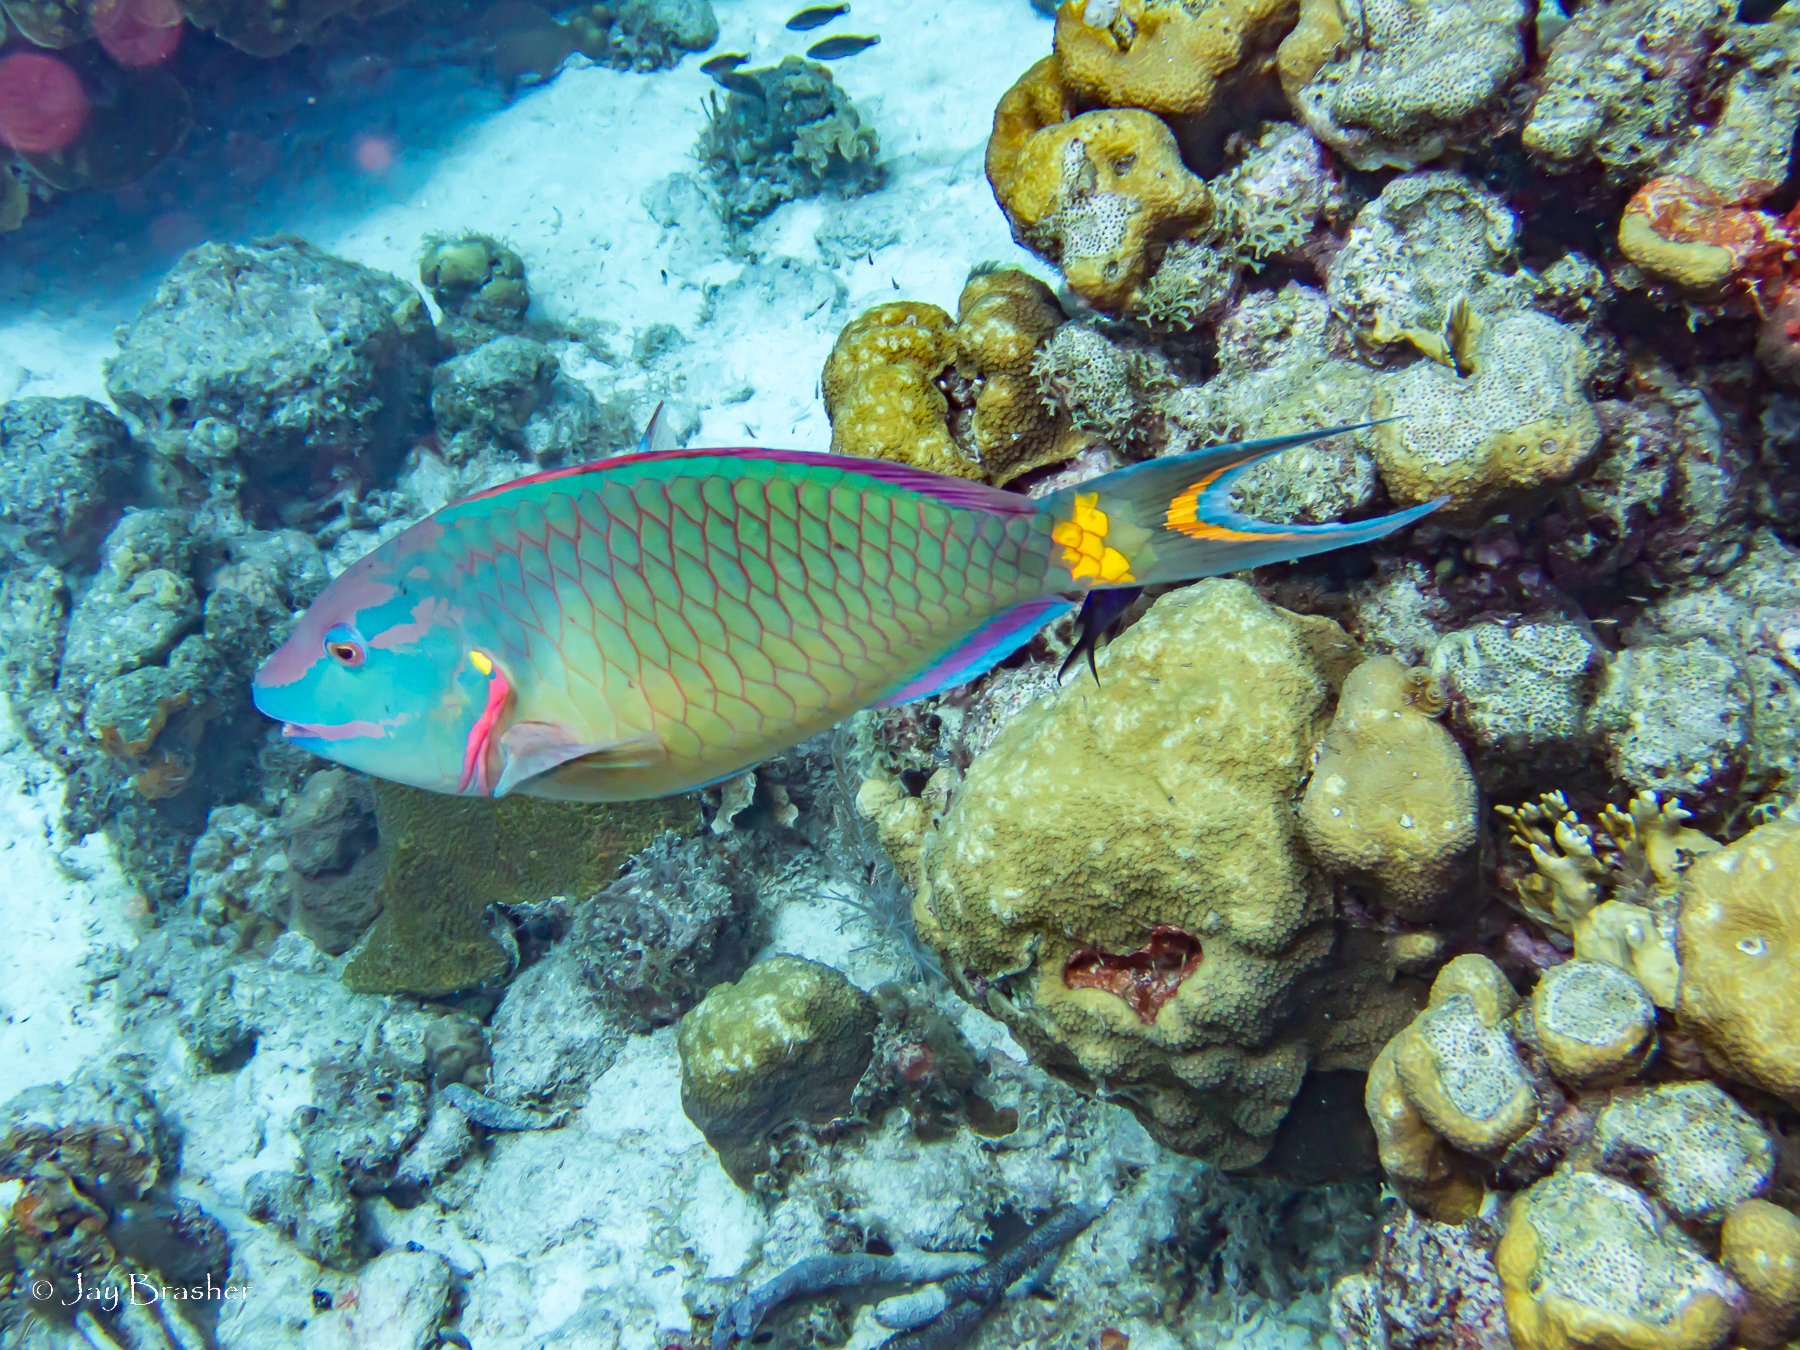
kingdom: Animalia
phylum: Chordata
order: Perciformes
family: Scaridae
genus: Sparisoma
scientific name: Sparisoma viride
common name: Stoplight parrotfish
